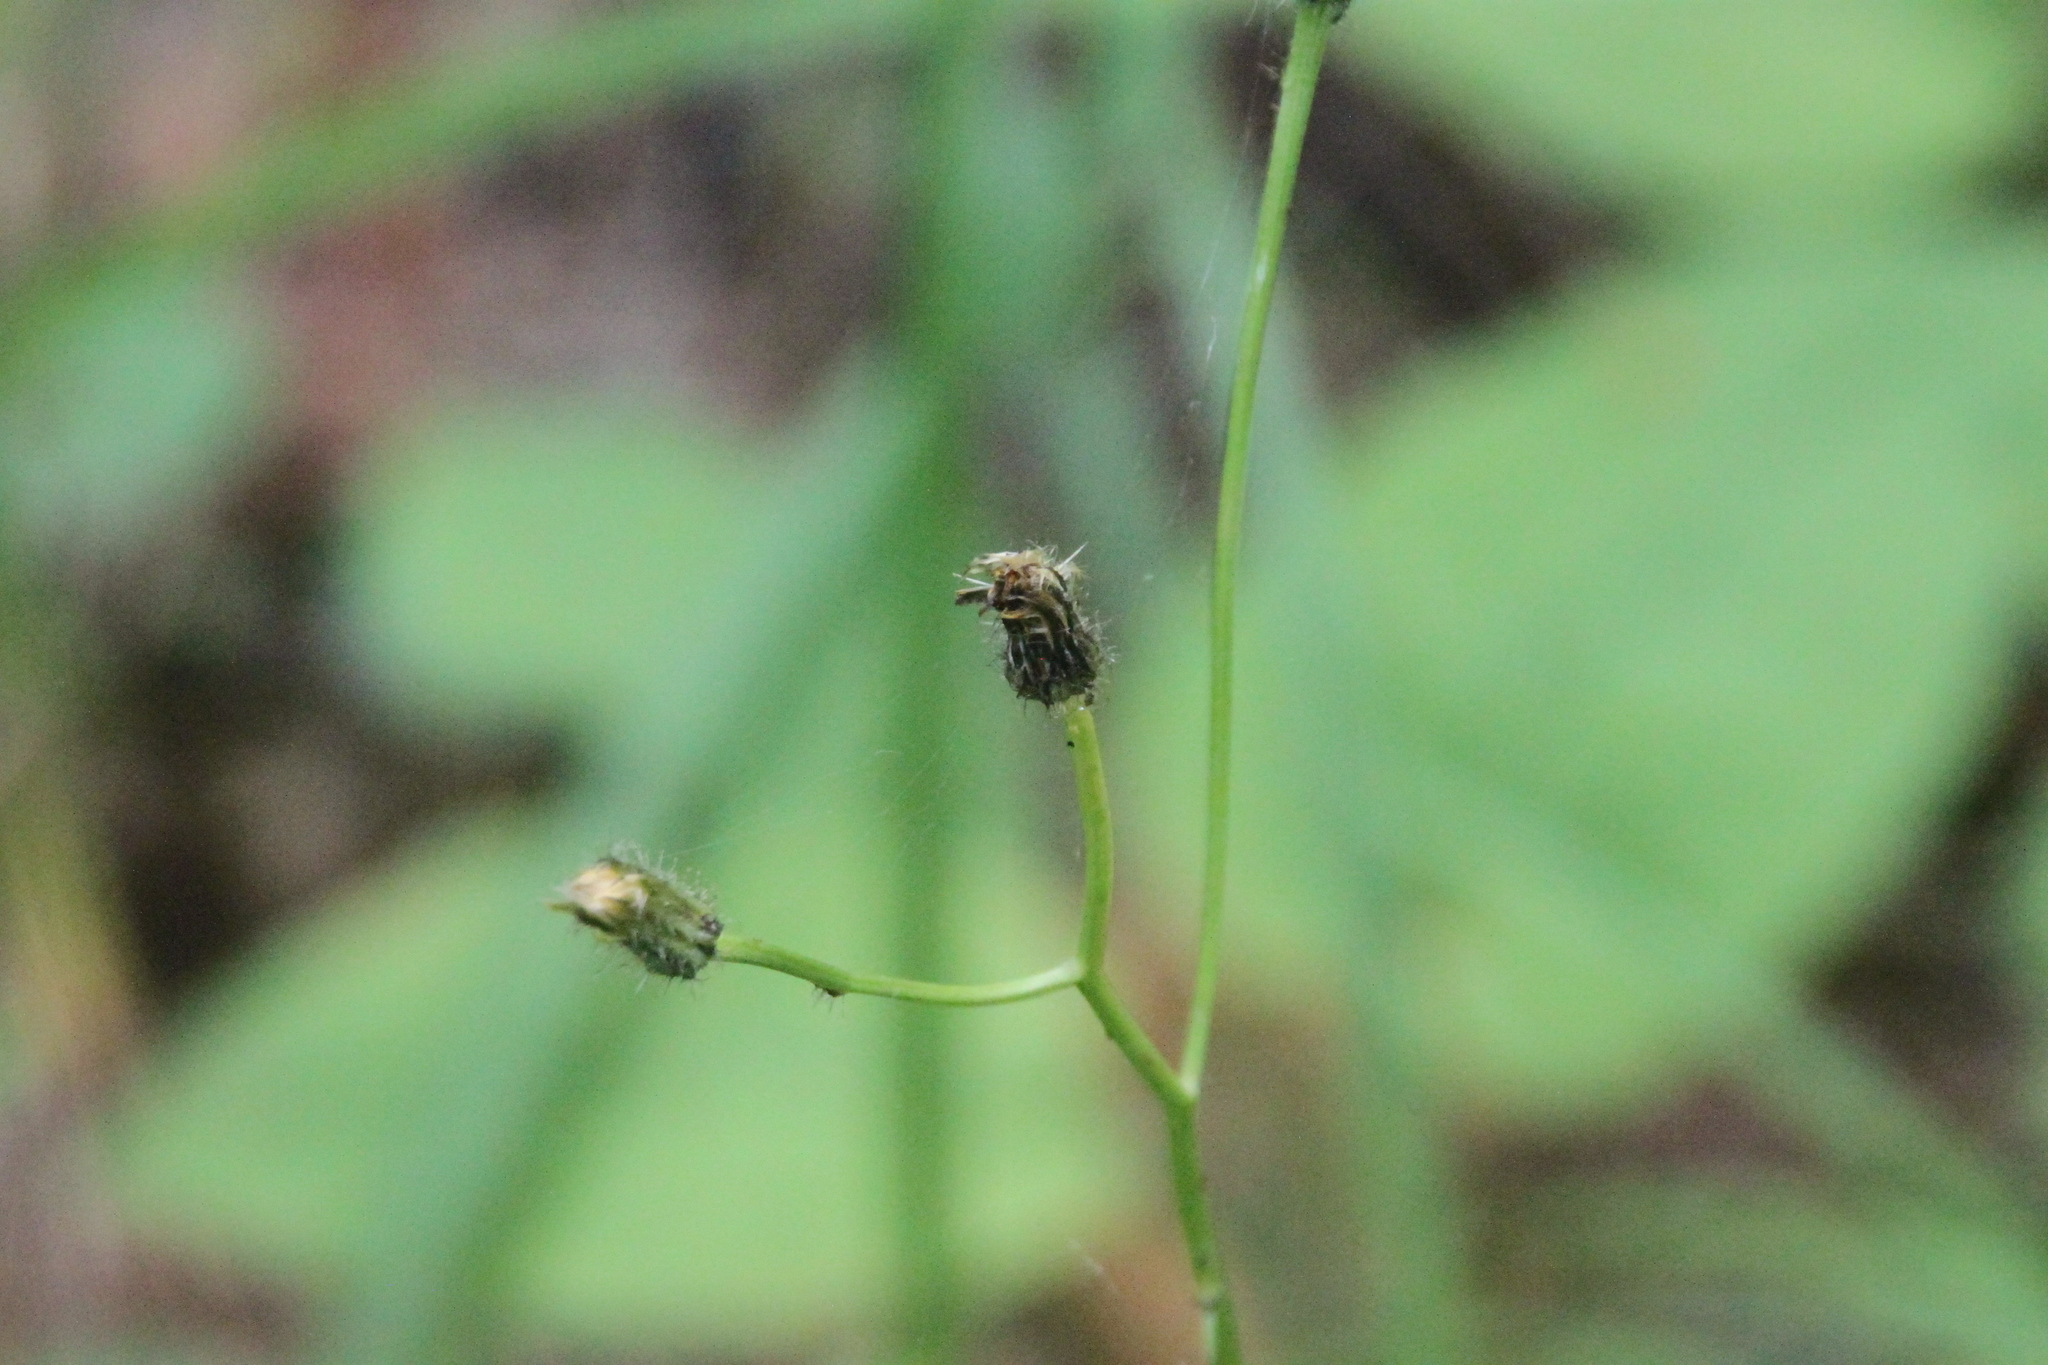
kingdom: Plantae
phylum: Tracheophyta
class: Magnoliopsida
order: Asterales
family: Asteraceae
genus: Crepis
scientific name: Crepis paludosa
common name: Marsh hawk's-beard
